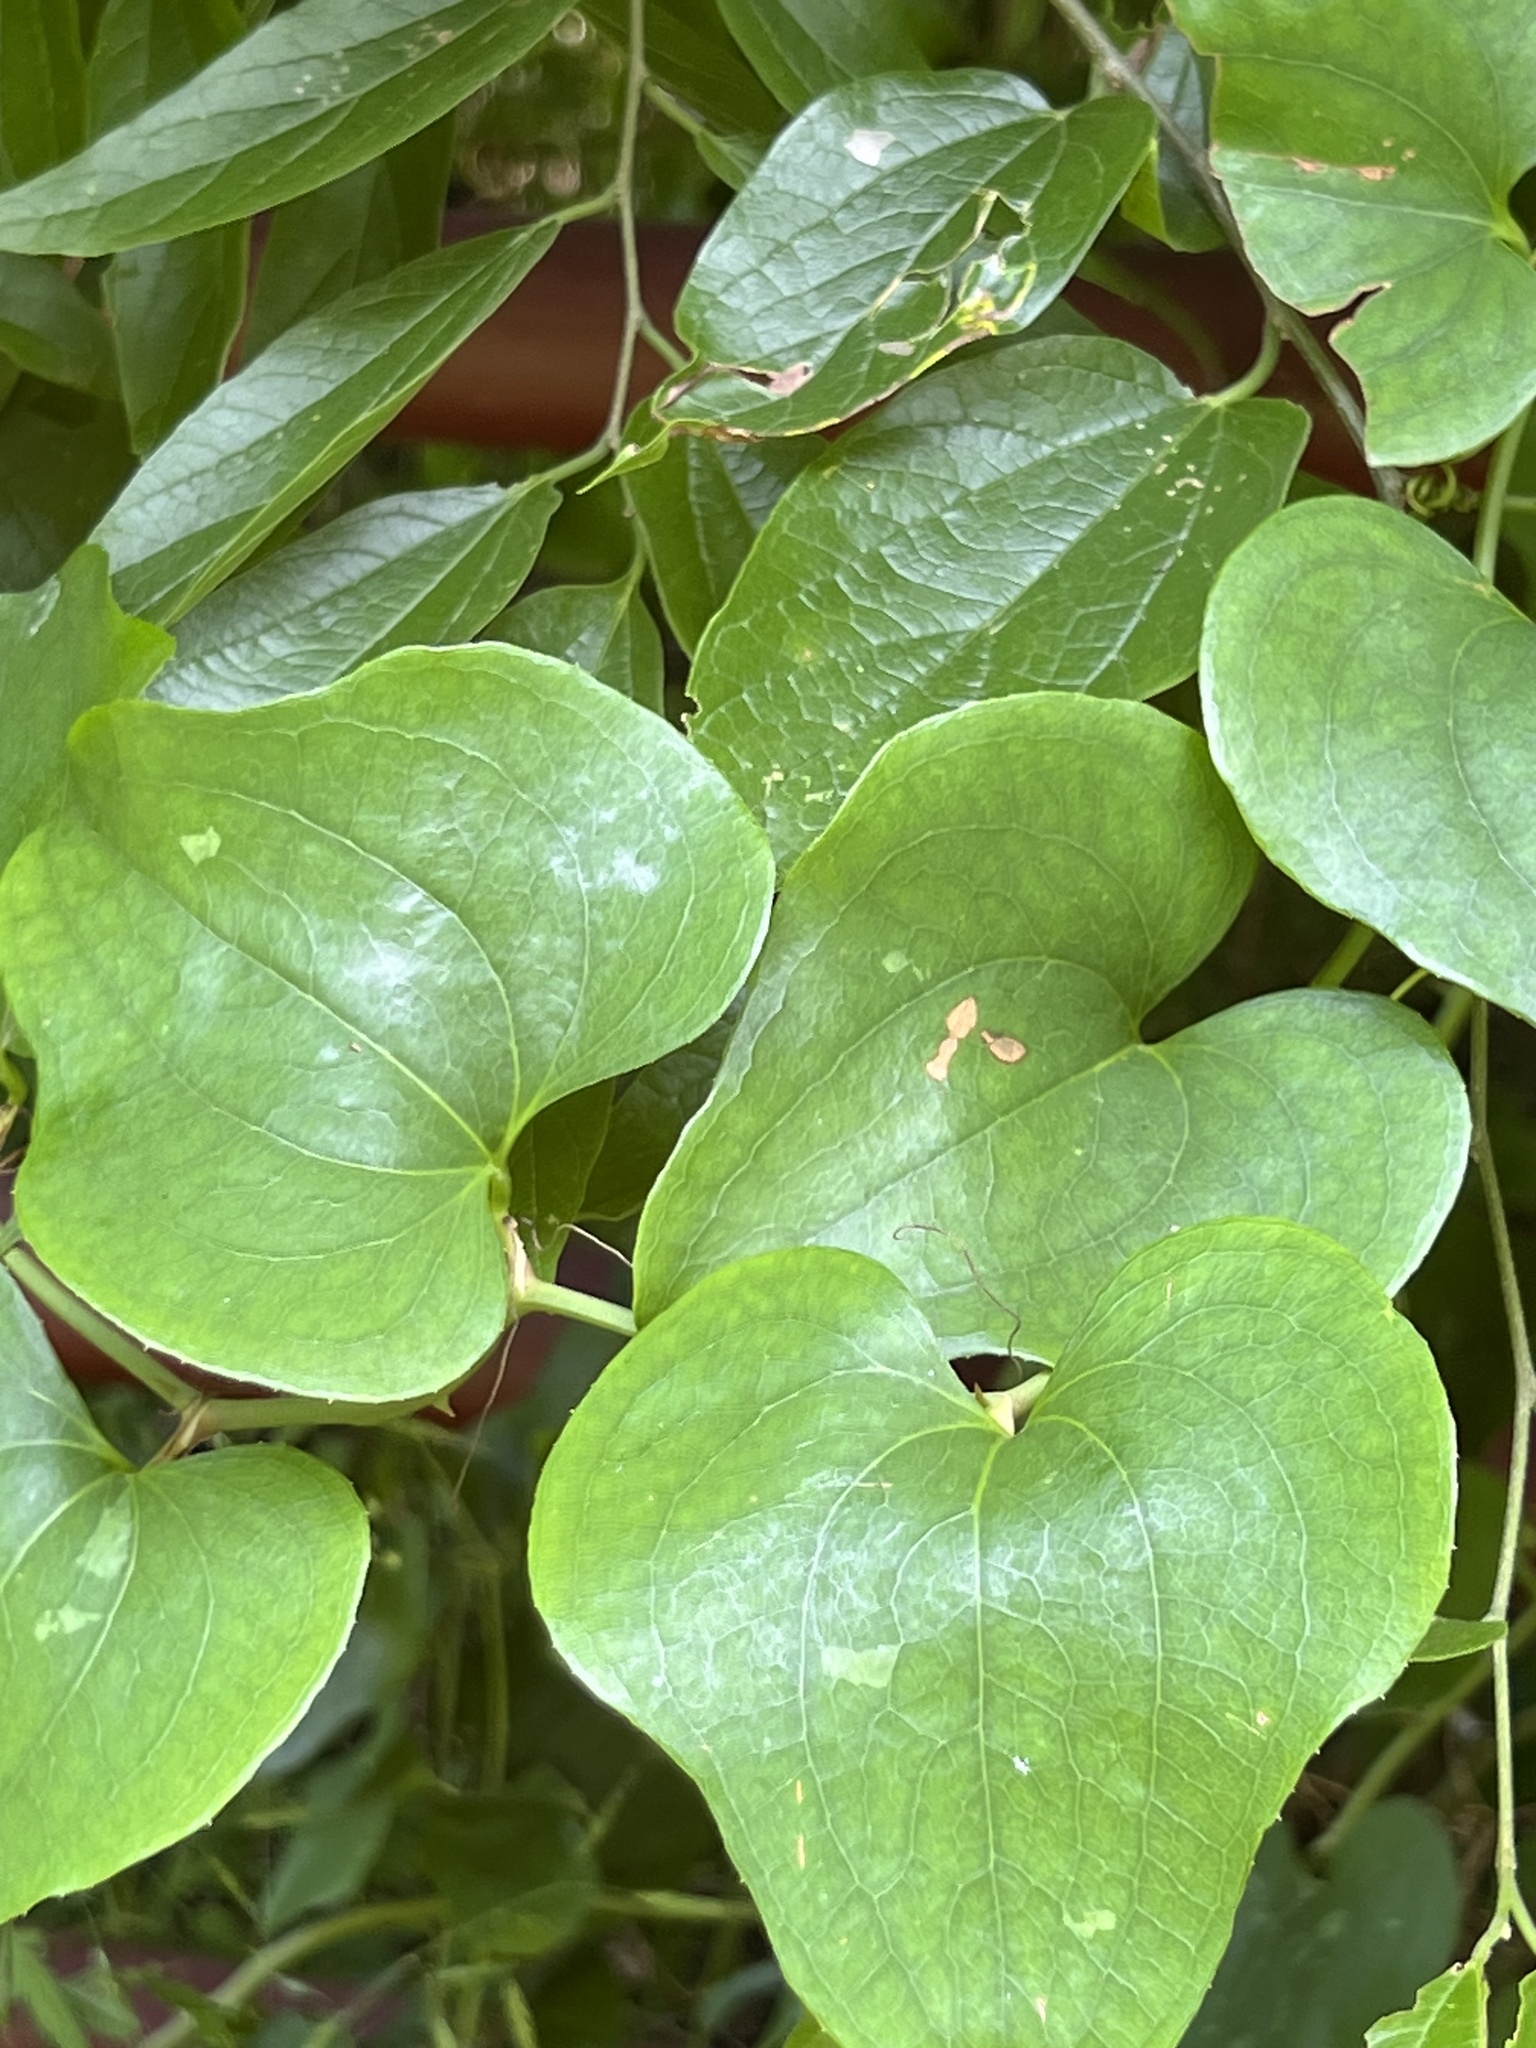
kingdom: Plantae
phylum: Tracheophyta
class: Liliopsida
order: Liliales
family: Smilacaceae
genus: Smilax
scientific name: Smilax bona-nox
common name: Catbrier
